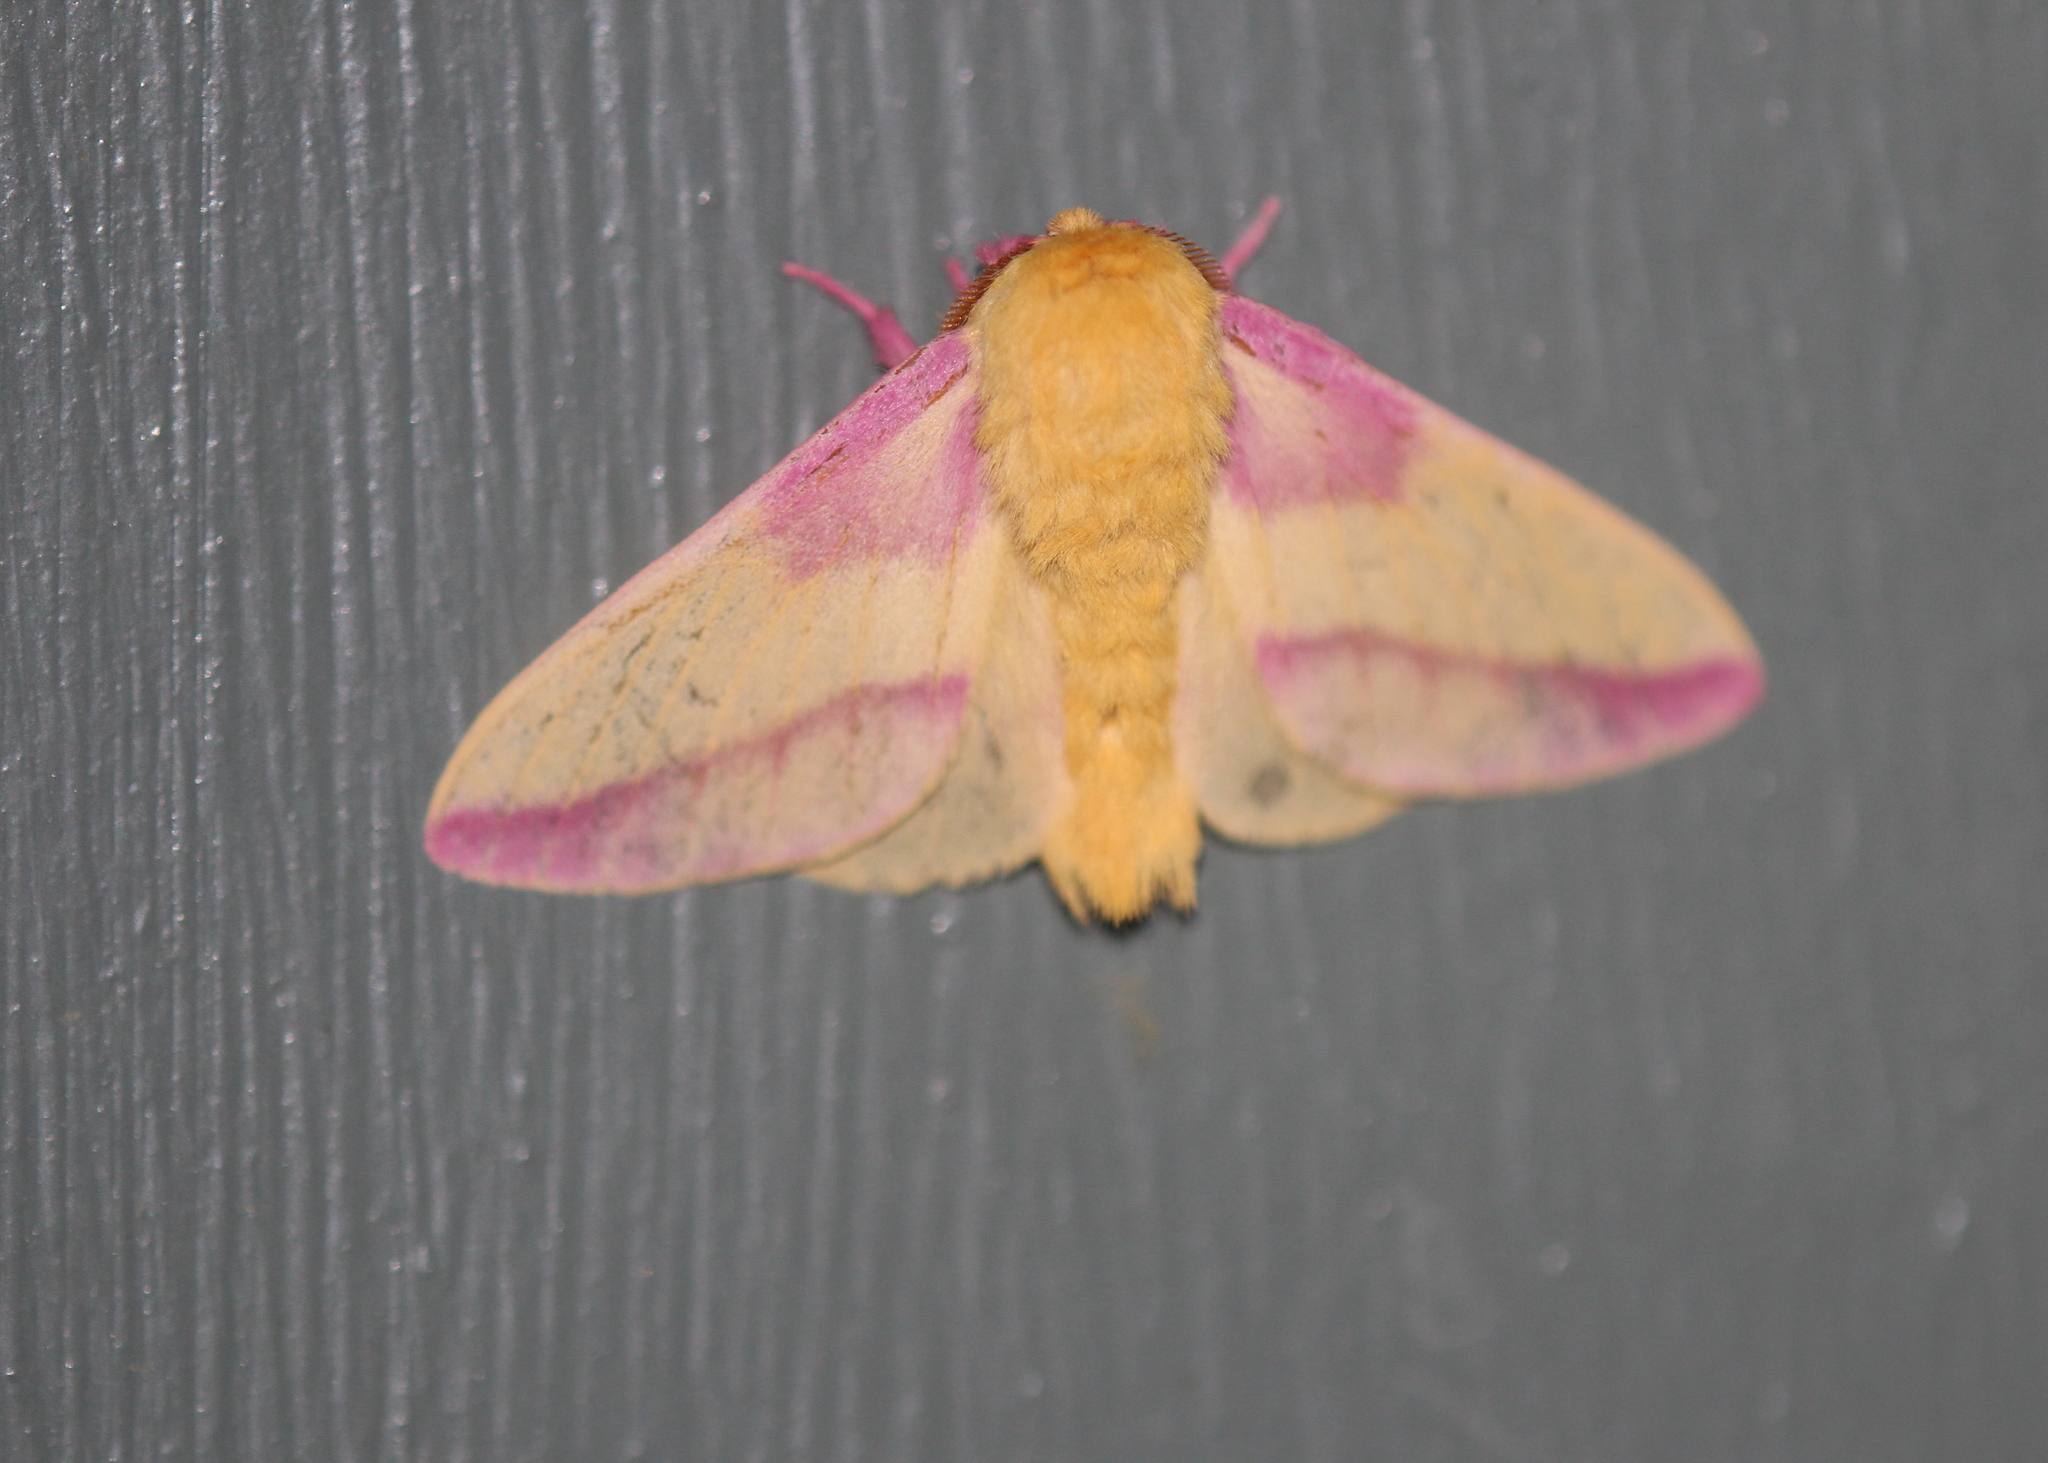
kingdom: Animalia
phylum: Arthropoda
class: Insecta
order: Lepidoptera
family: Saturniidae
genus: Dryocampa
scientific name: Dryocampa rubicunda
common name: Rosy maple moth
